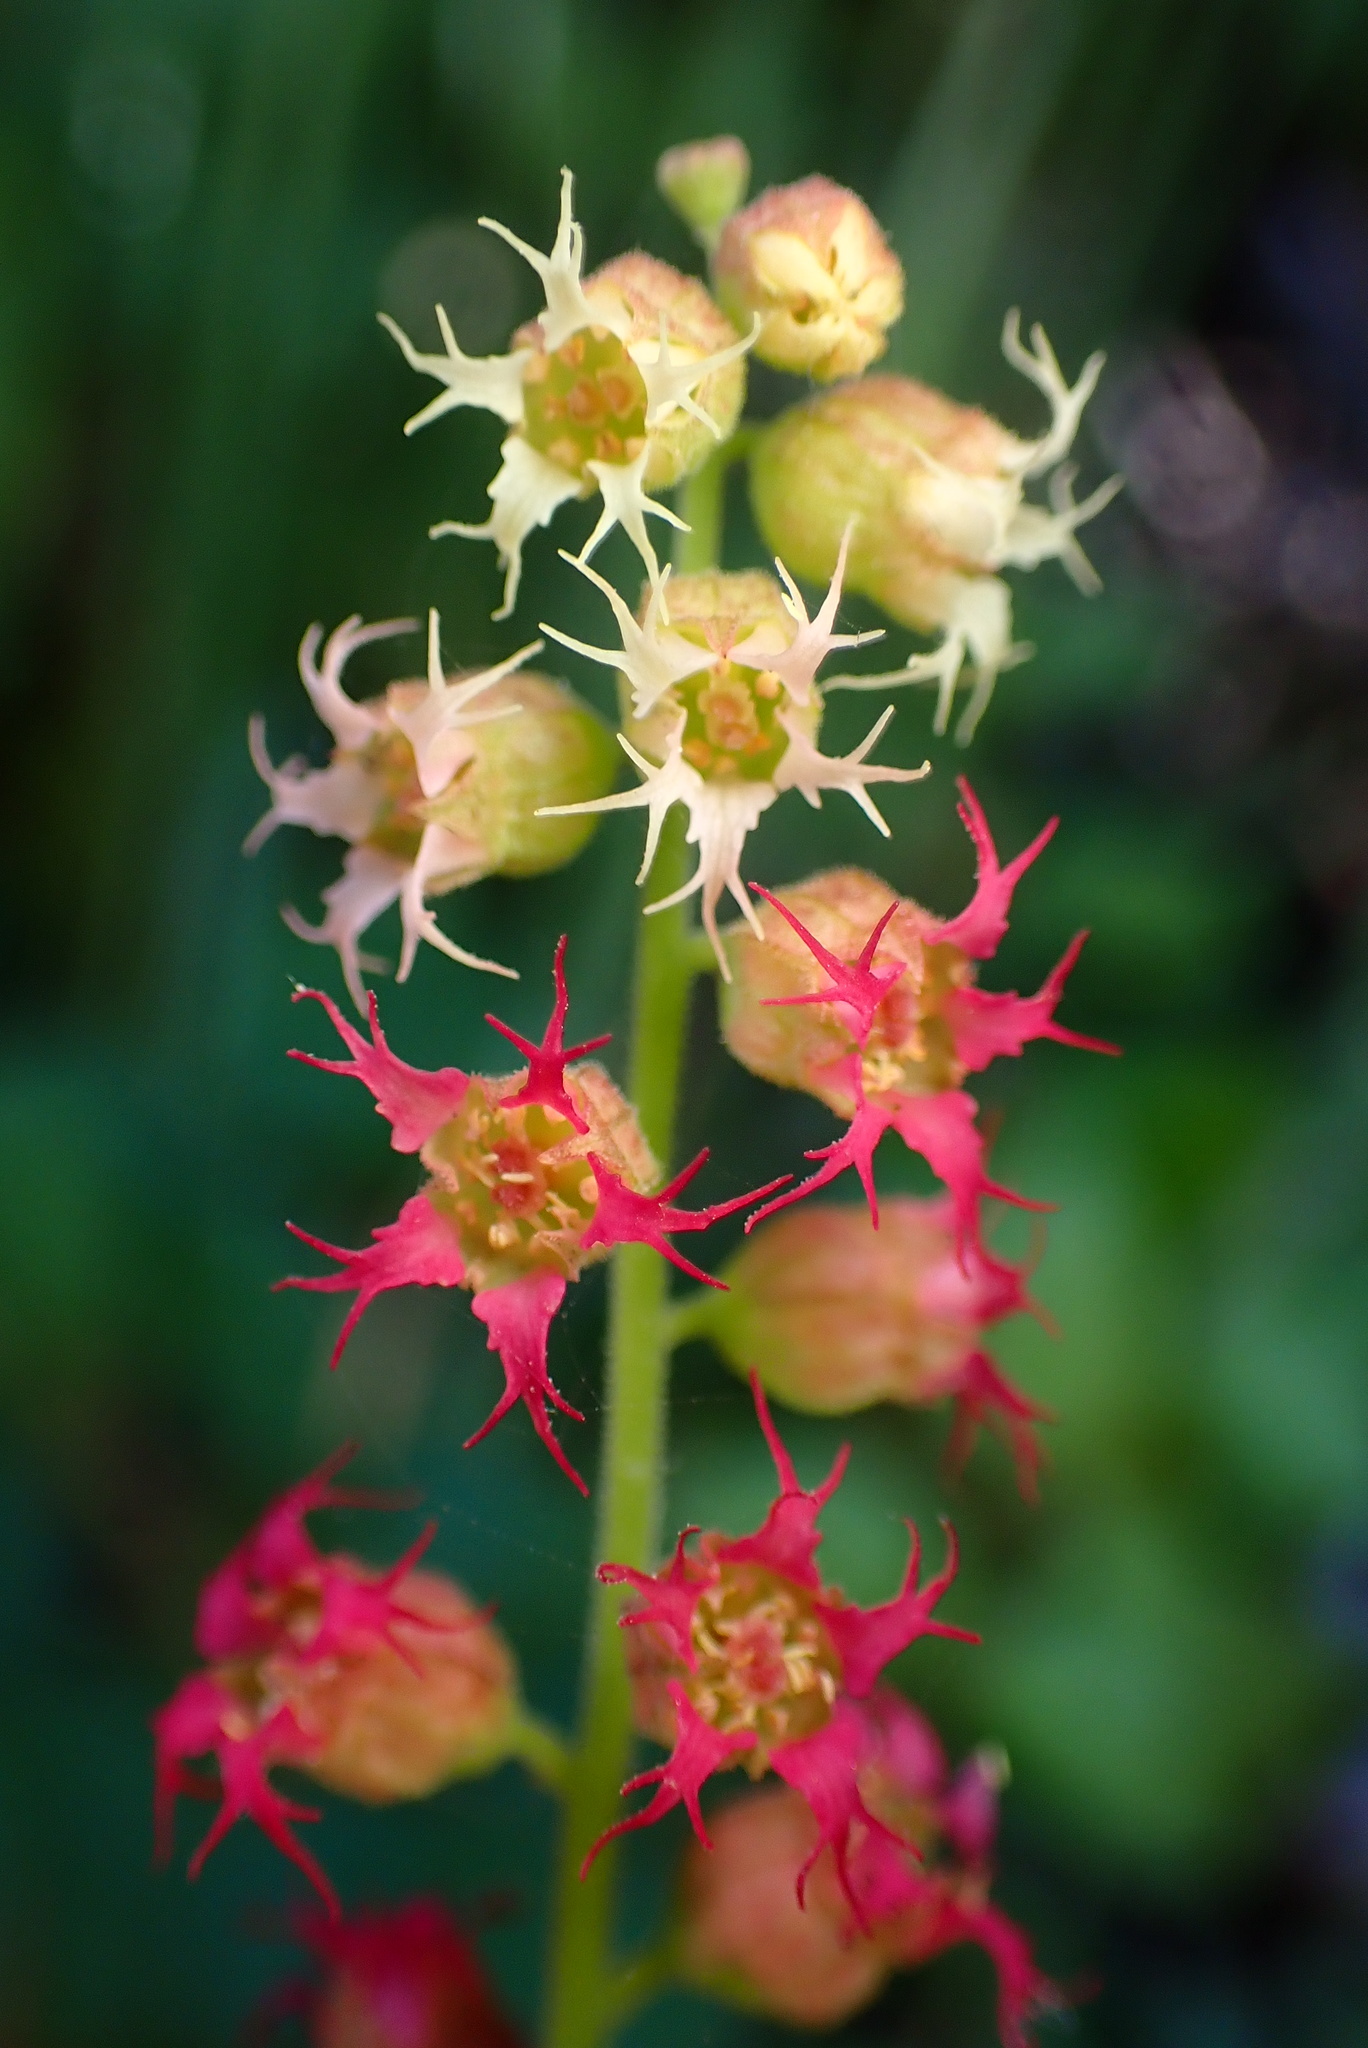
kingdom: Plantae
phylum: Tracheophyta
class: Magnoliopsida
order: Saxifragales
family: Saxifragaceae
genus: Tellima
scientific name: Tellima grandiflora
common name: Fringecups
